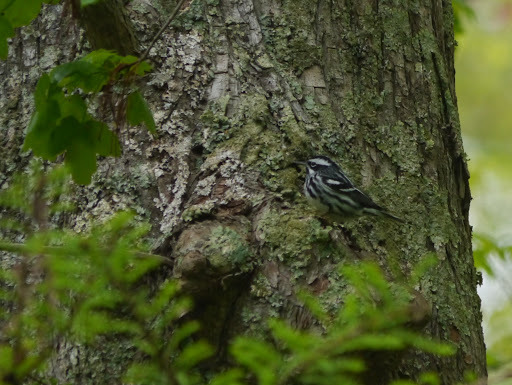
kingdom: Animalia
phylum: Chordata
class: Aves
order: Passeriformes
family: Parulidae
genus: Mniotilta
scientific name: Mniotilta varia
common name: Black-and-white warbler
